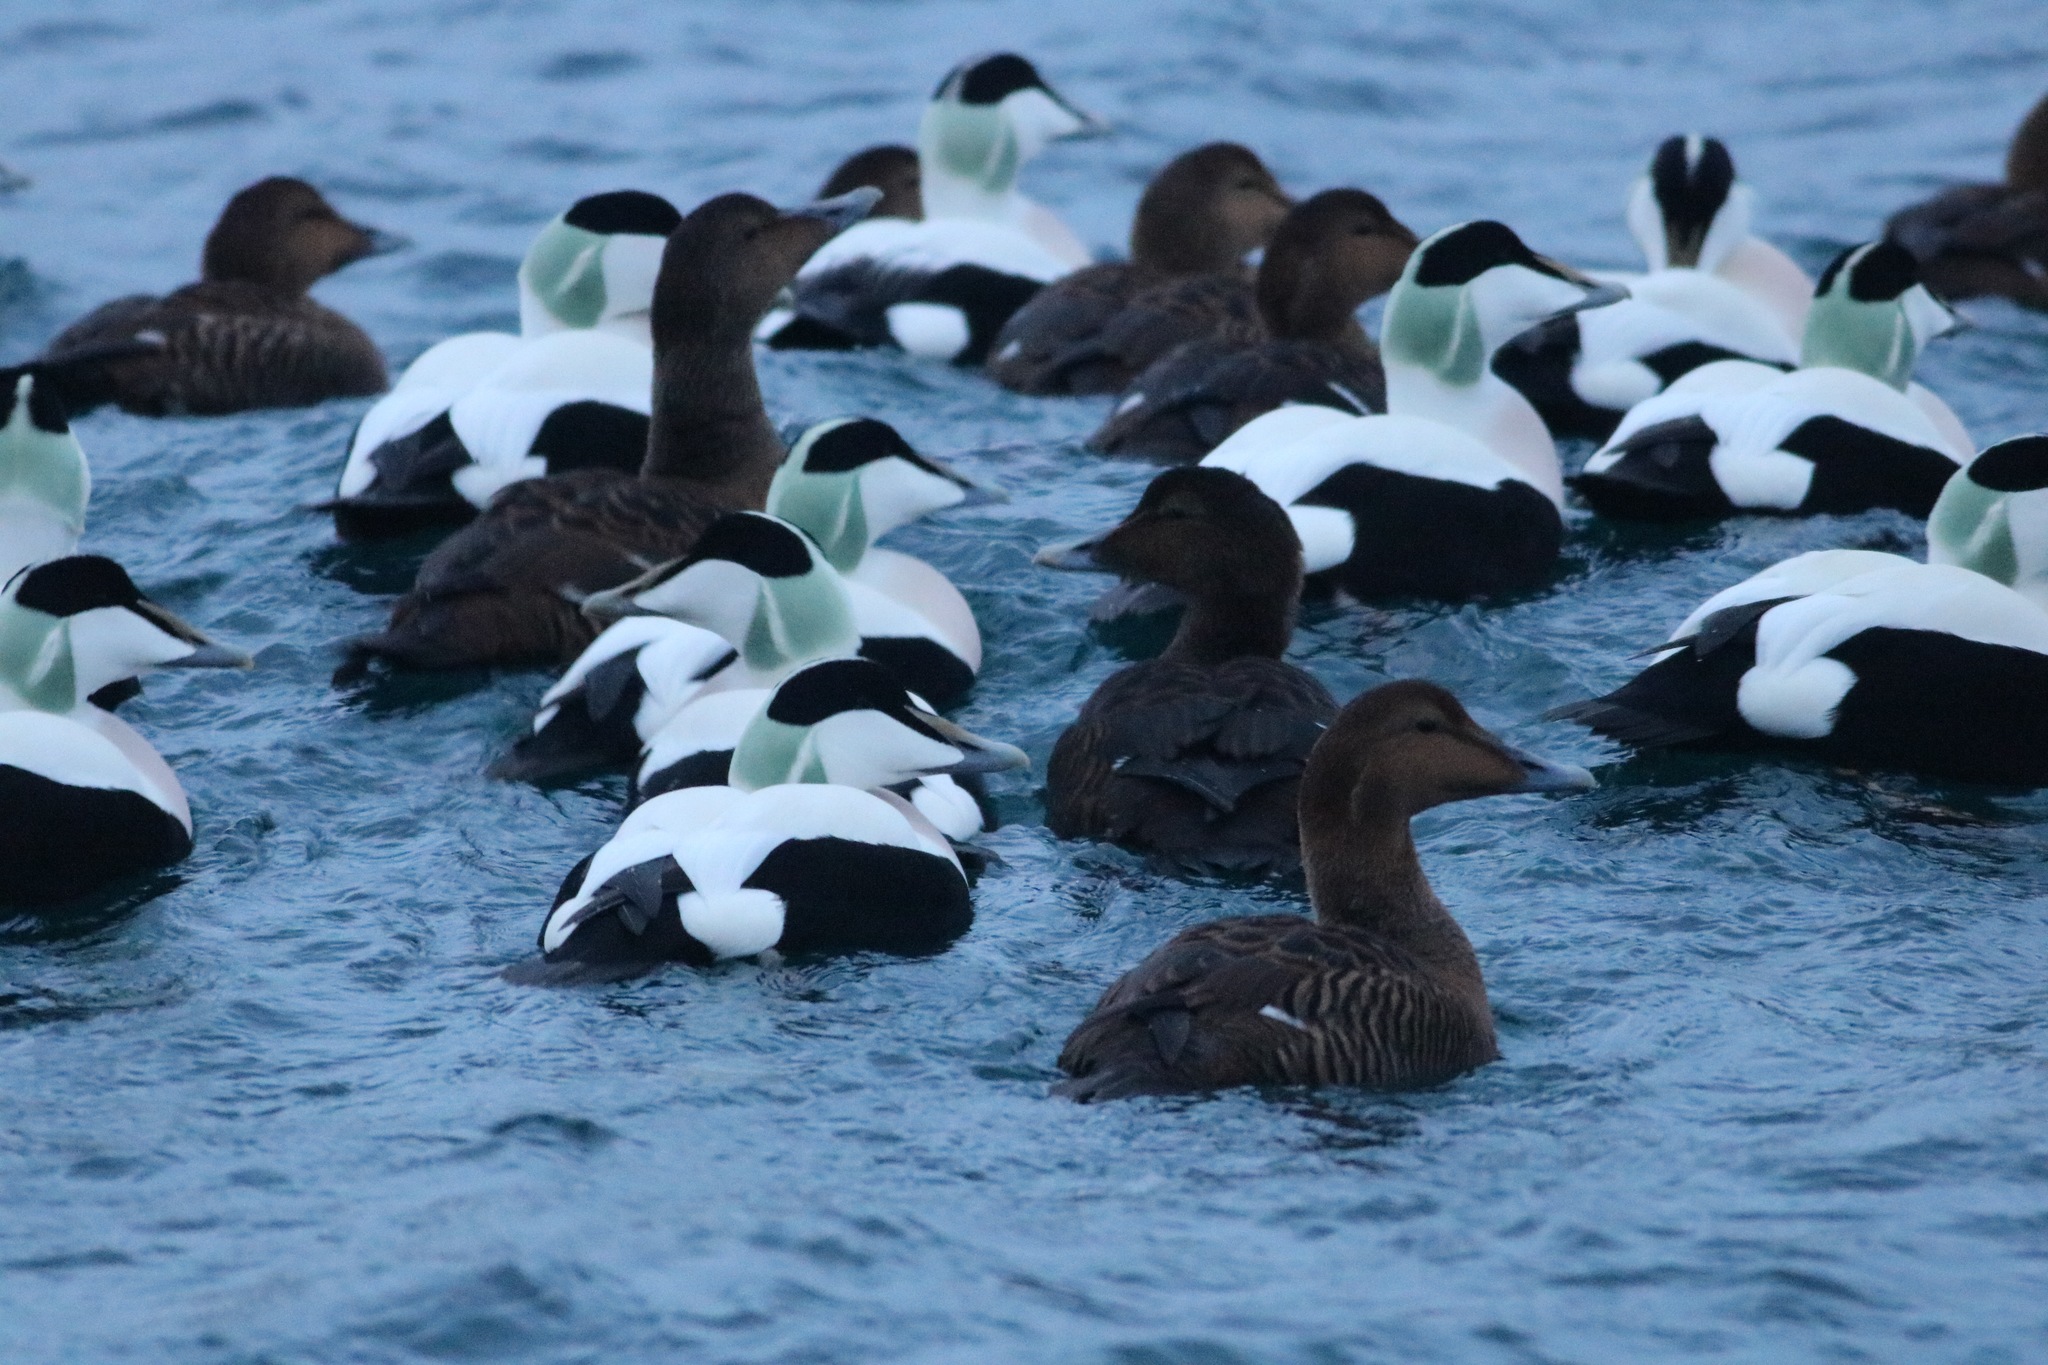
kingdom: Animalia
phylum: Chordata
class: Aves
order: Anseriformes
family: Anatidae
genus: Somateria
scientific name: Somateria mollissima
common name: Common eider
